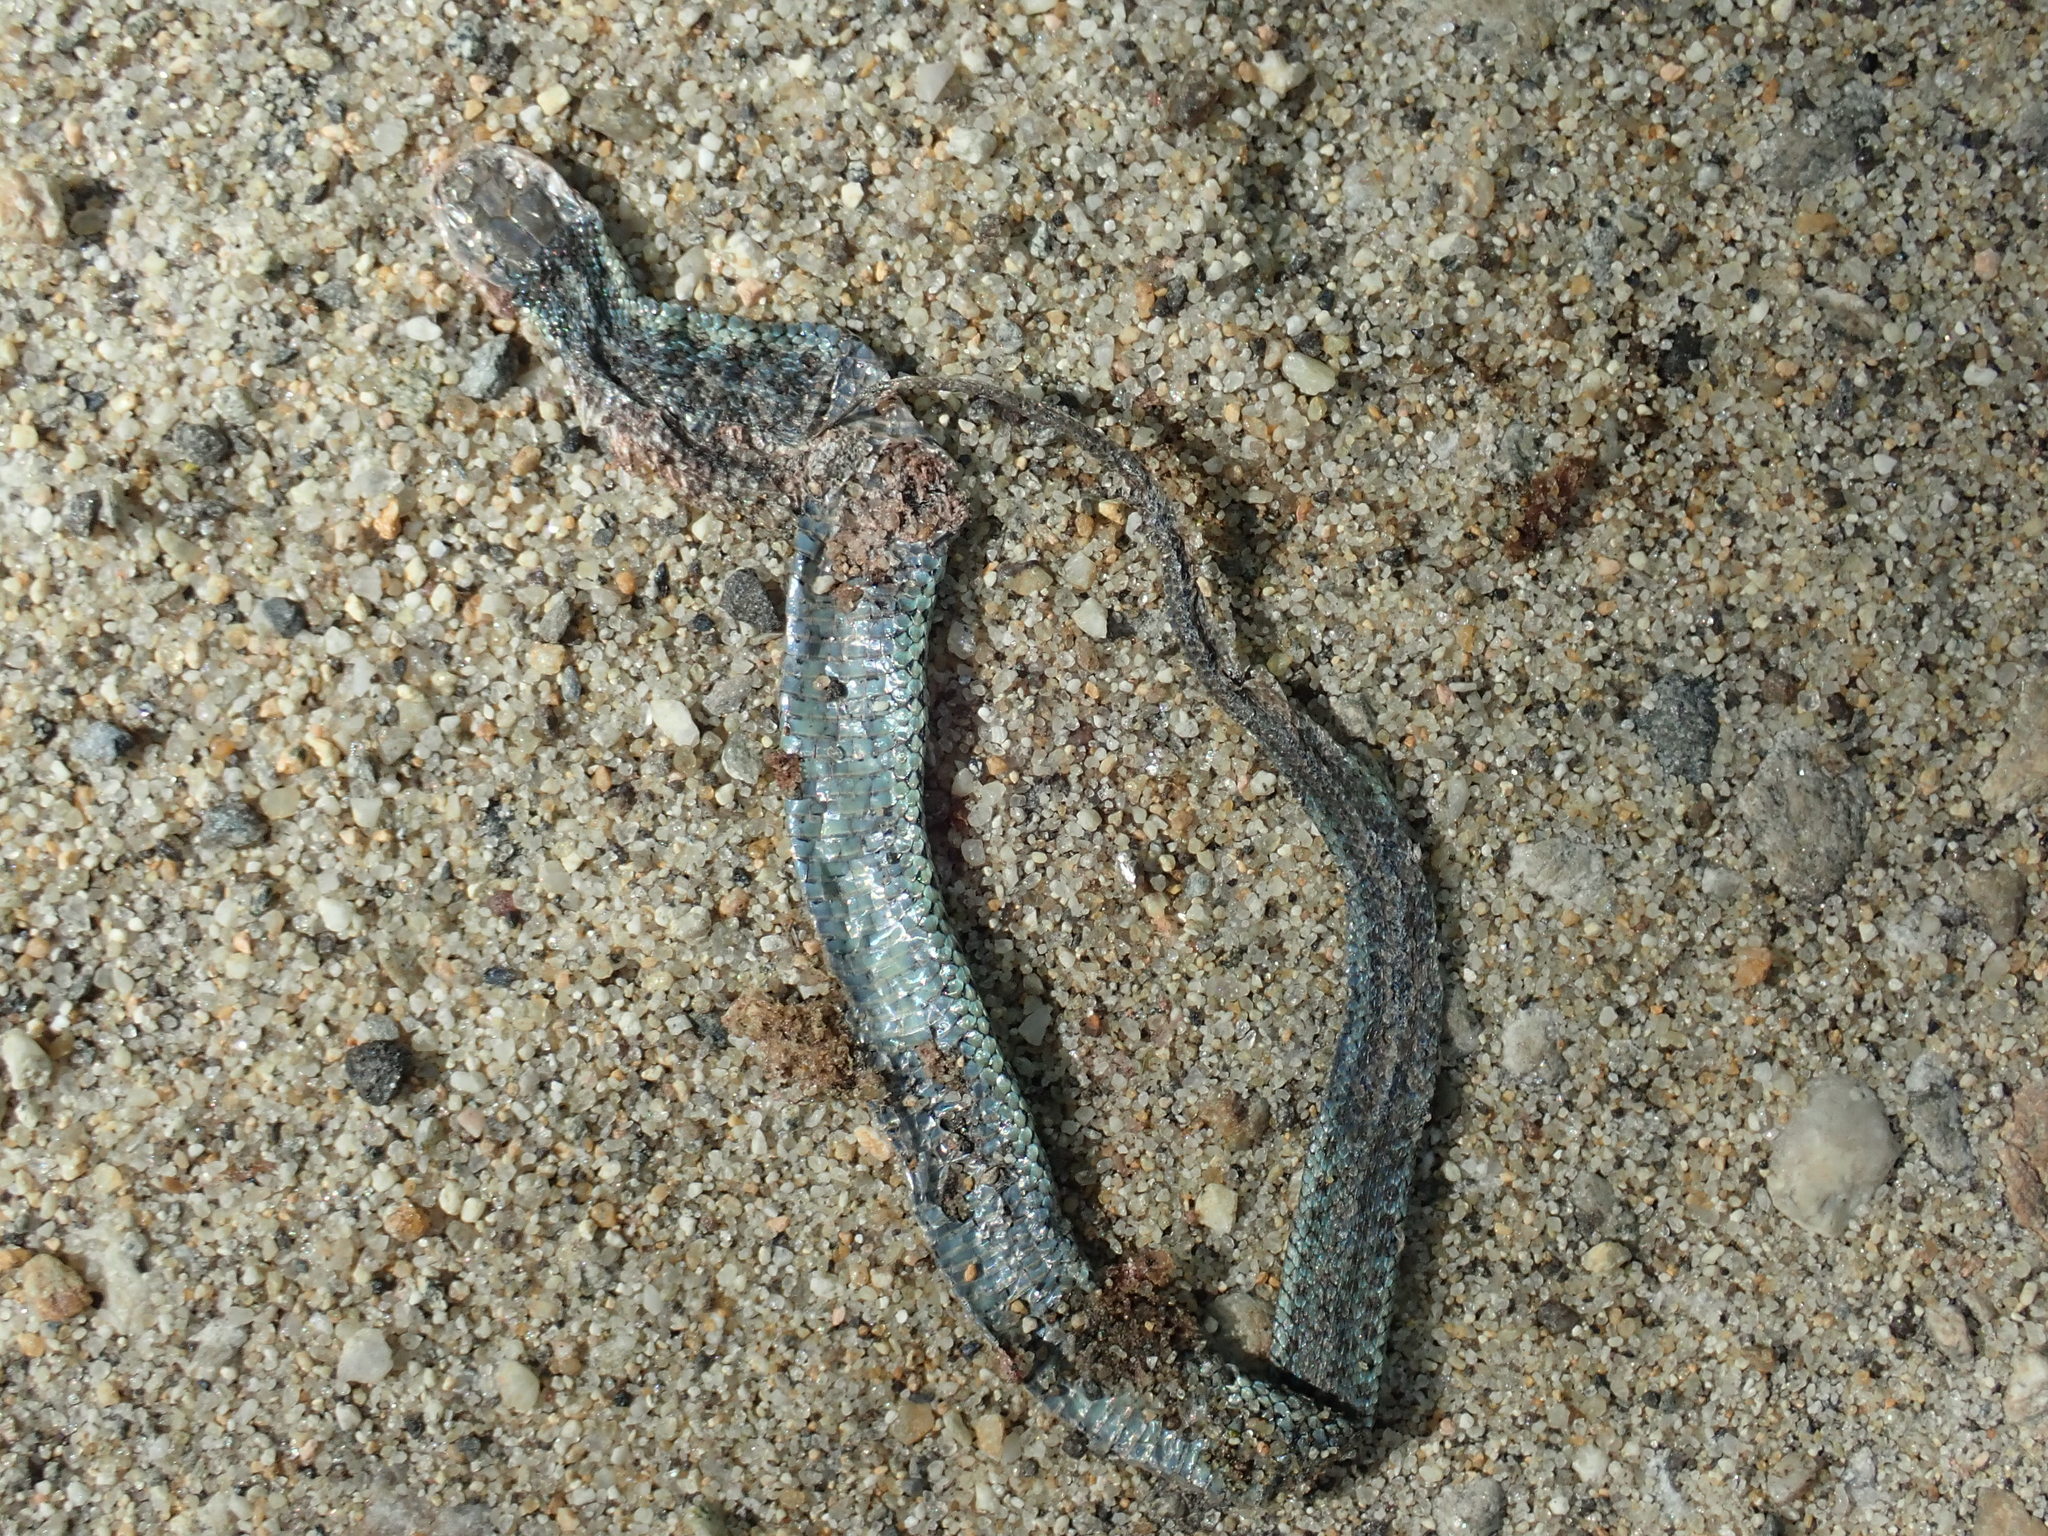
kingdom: Animalia
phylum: Chordata
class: Squamata
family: Colubridae
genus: Thamnophis
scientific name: Thamnophis sirtalis
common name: Common garter snake
